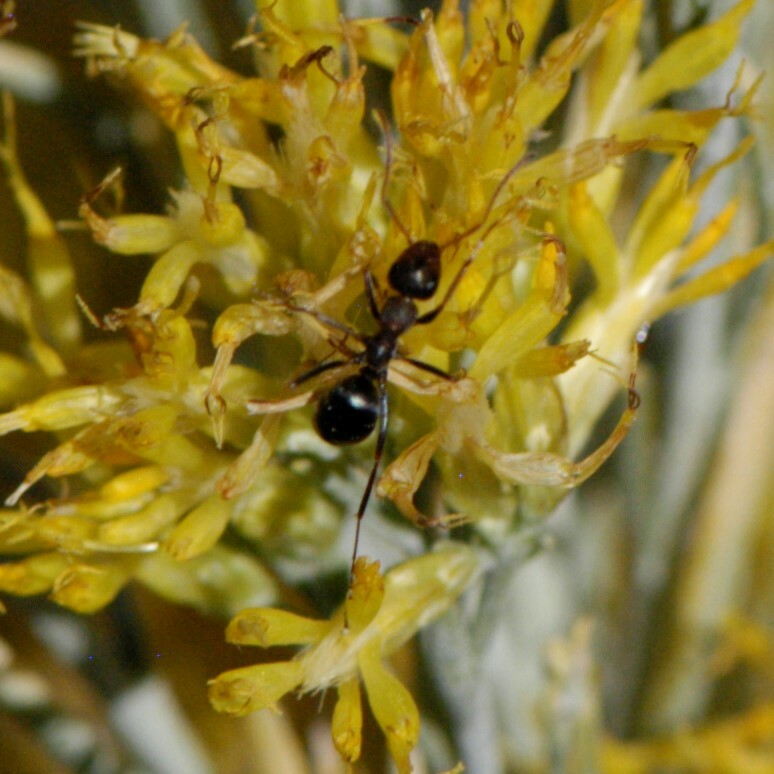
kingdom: Animalia
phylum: Arthropoda
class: Insecta
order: Hymenoptera
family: Formicidae
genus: Formica
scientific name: Formica
